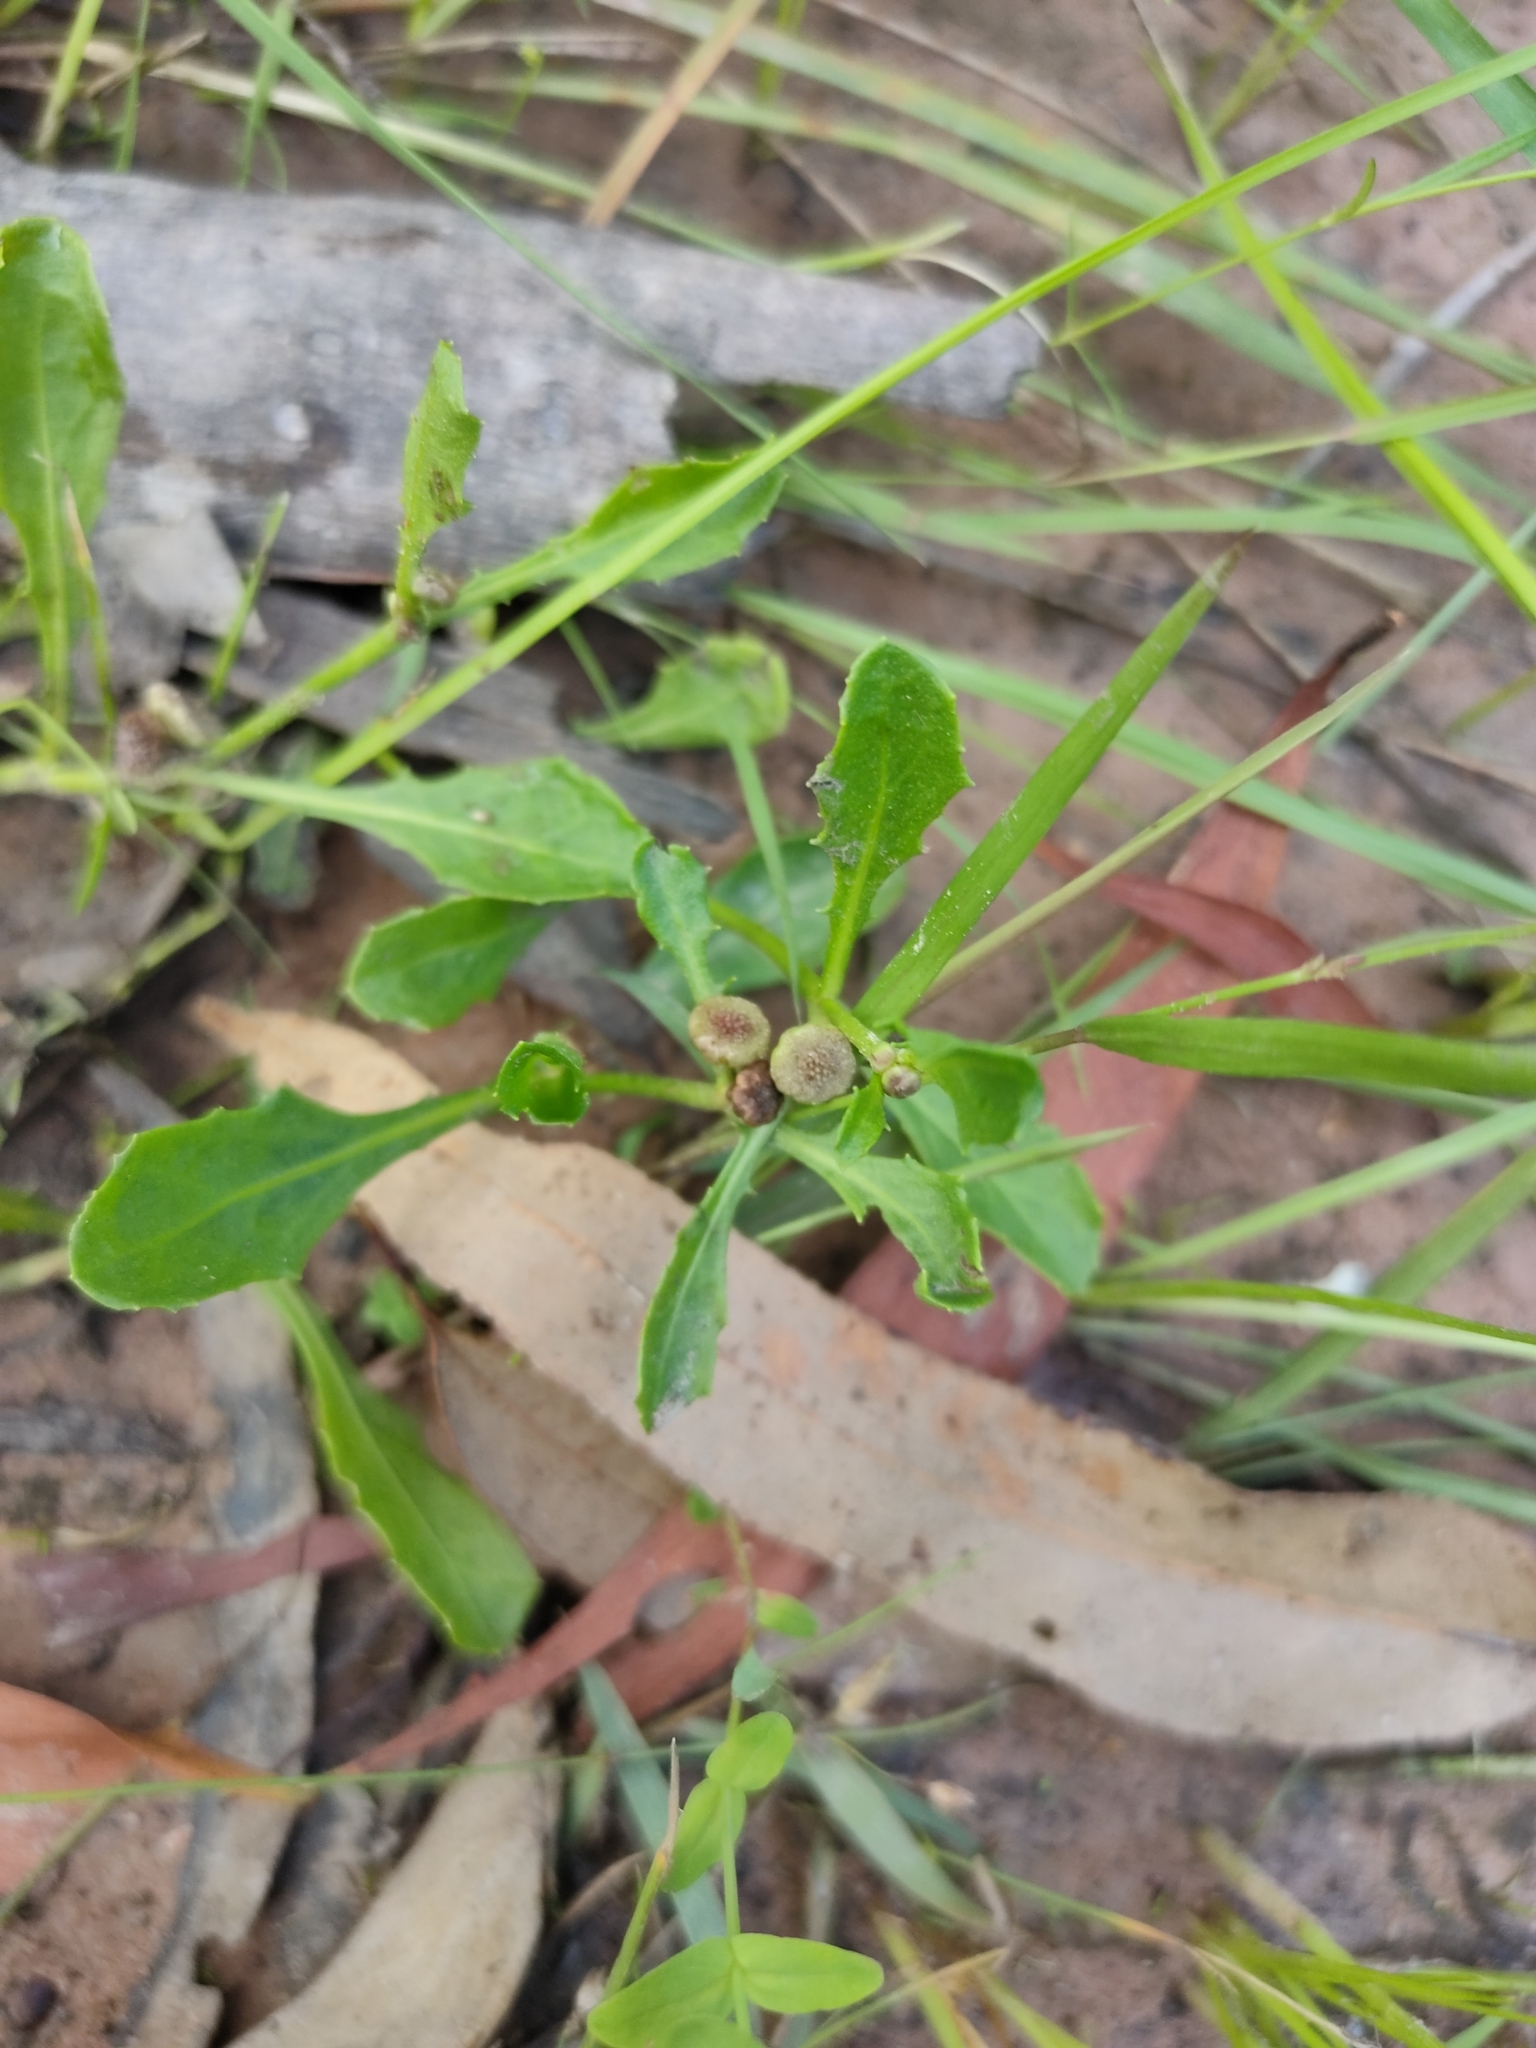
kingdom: Plantae
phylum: Tracheophyta
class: Magnoliopsida
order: Asterales
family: Asteraceae
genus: Sphaeromorphaea
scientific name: Sphaeromorphaea australis
